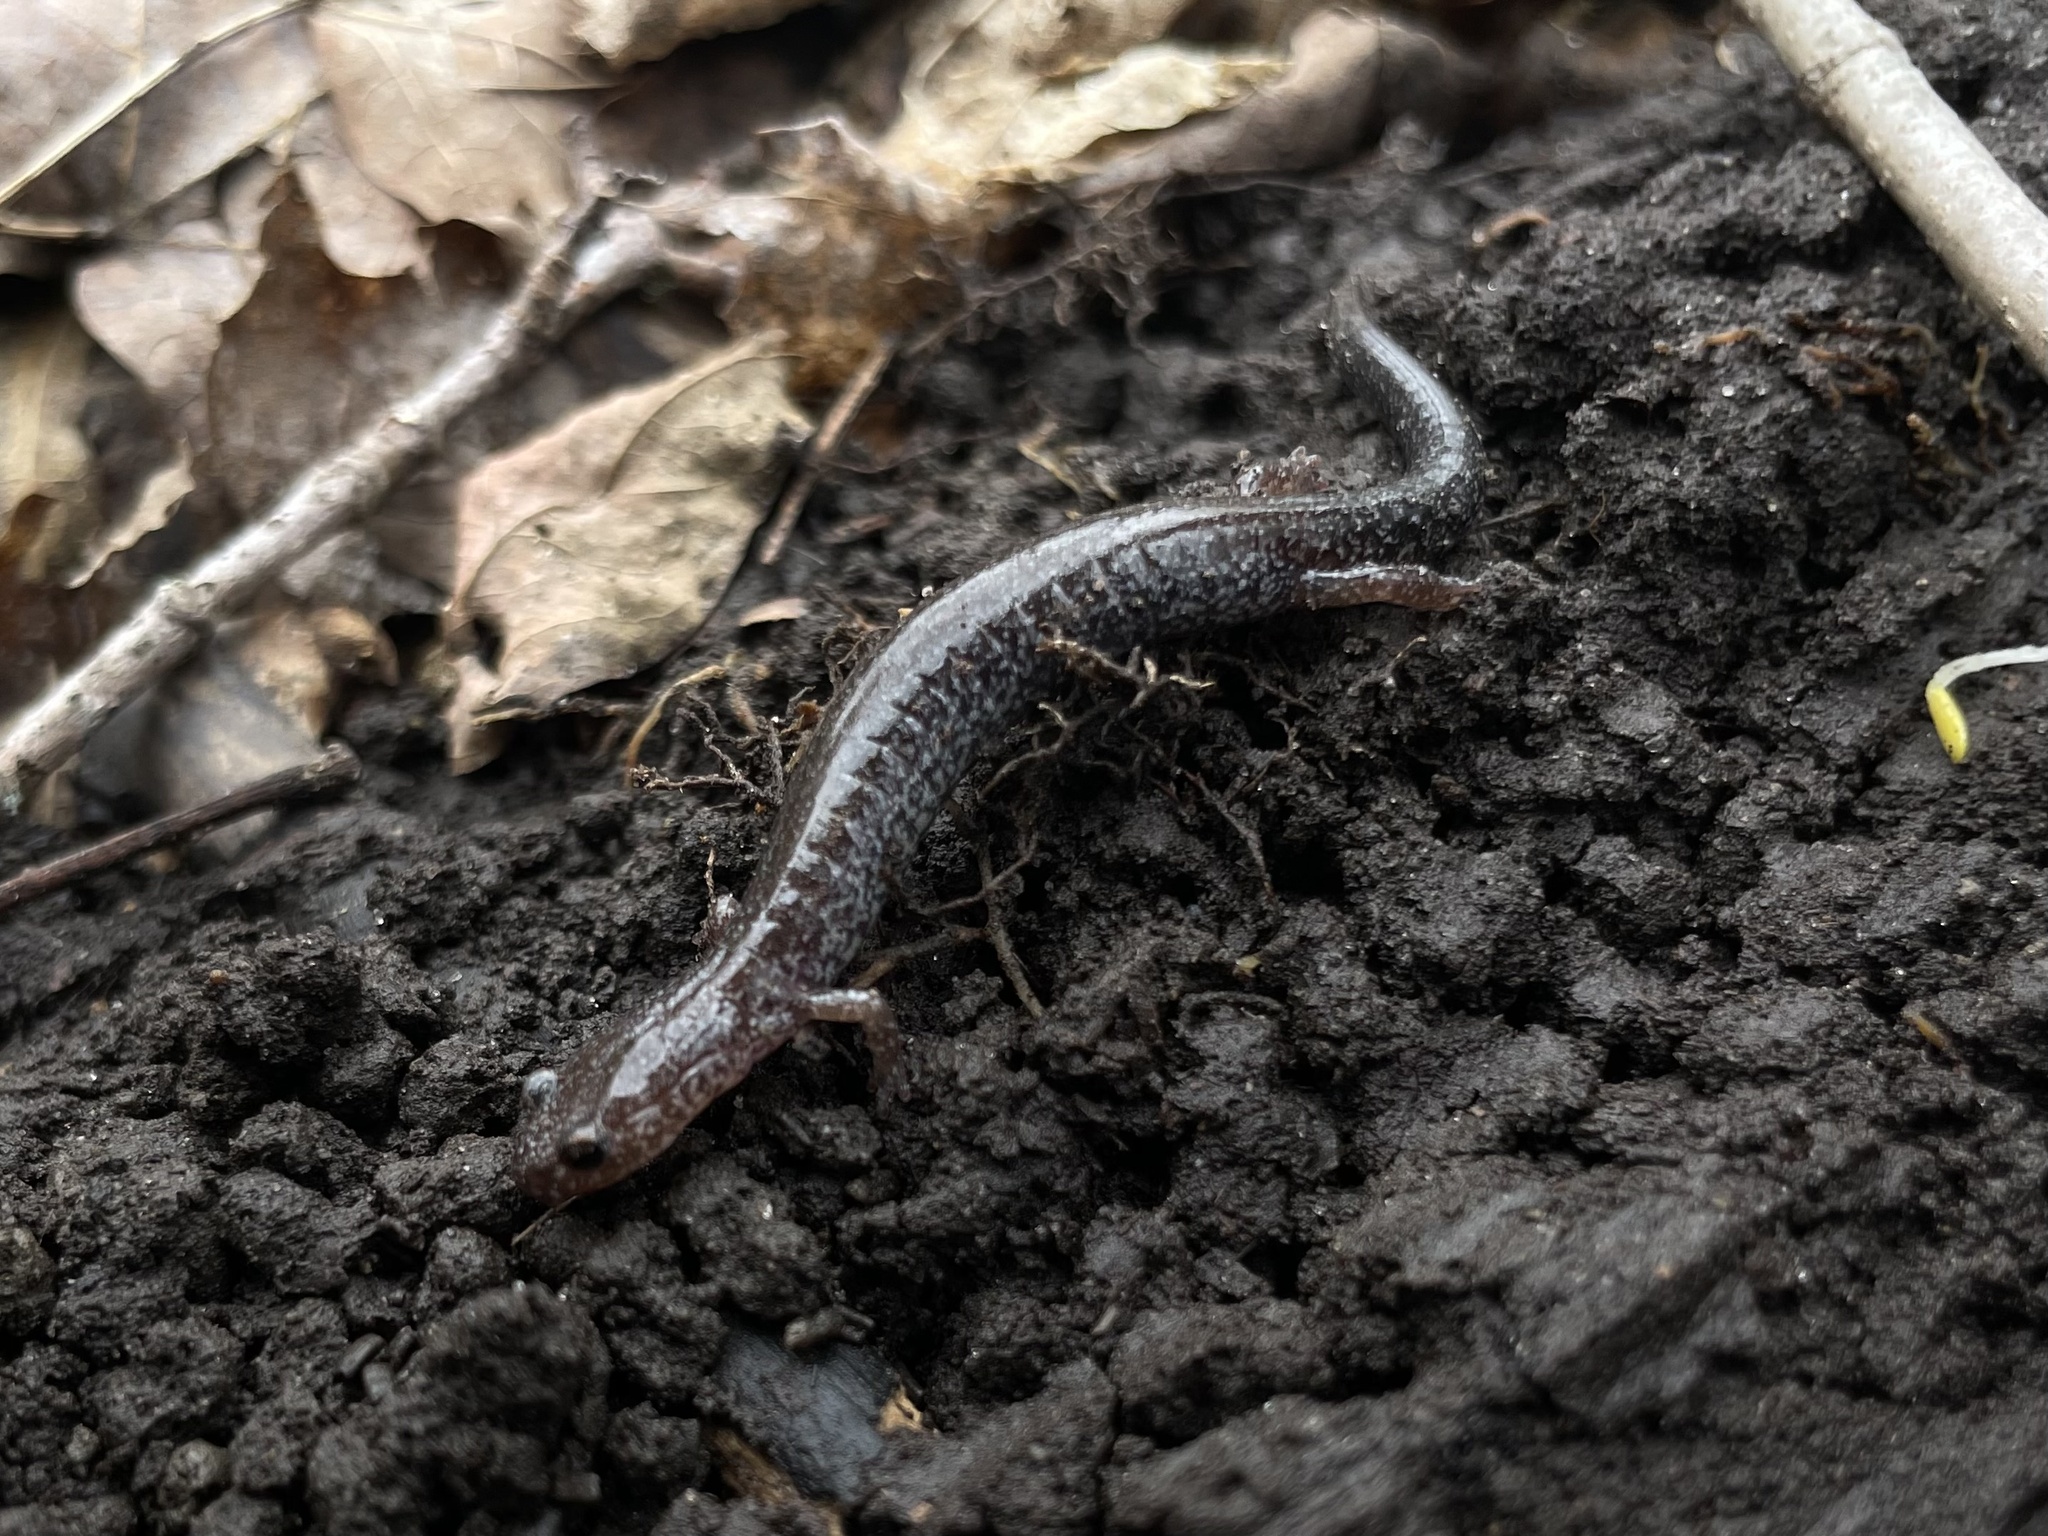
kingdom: Animalia
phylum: Chordata
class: Amphibia
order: Caudata
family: Plethodontidae
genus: Plethodon
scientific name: Plethodon cinereus
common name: Redback salamander
